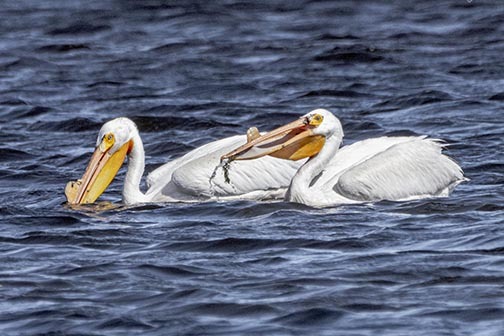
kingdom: Animalia
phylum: Chordata
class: Aves
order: Pelecaniformes
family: Pelecanidae
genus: Pelecanus
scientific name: Pelecanus erythrorhynchos
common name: American white pelican
